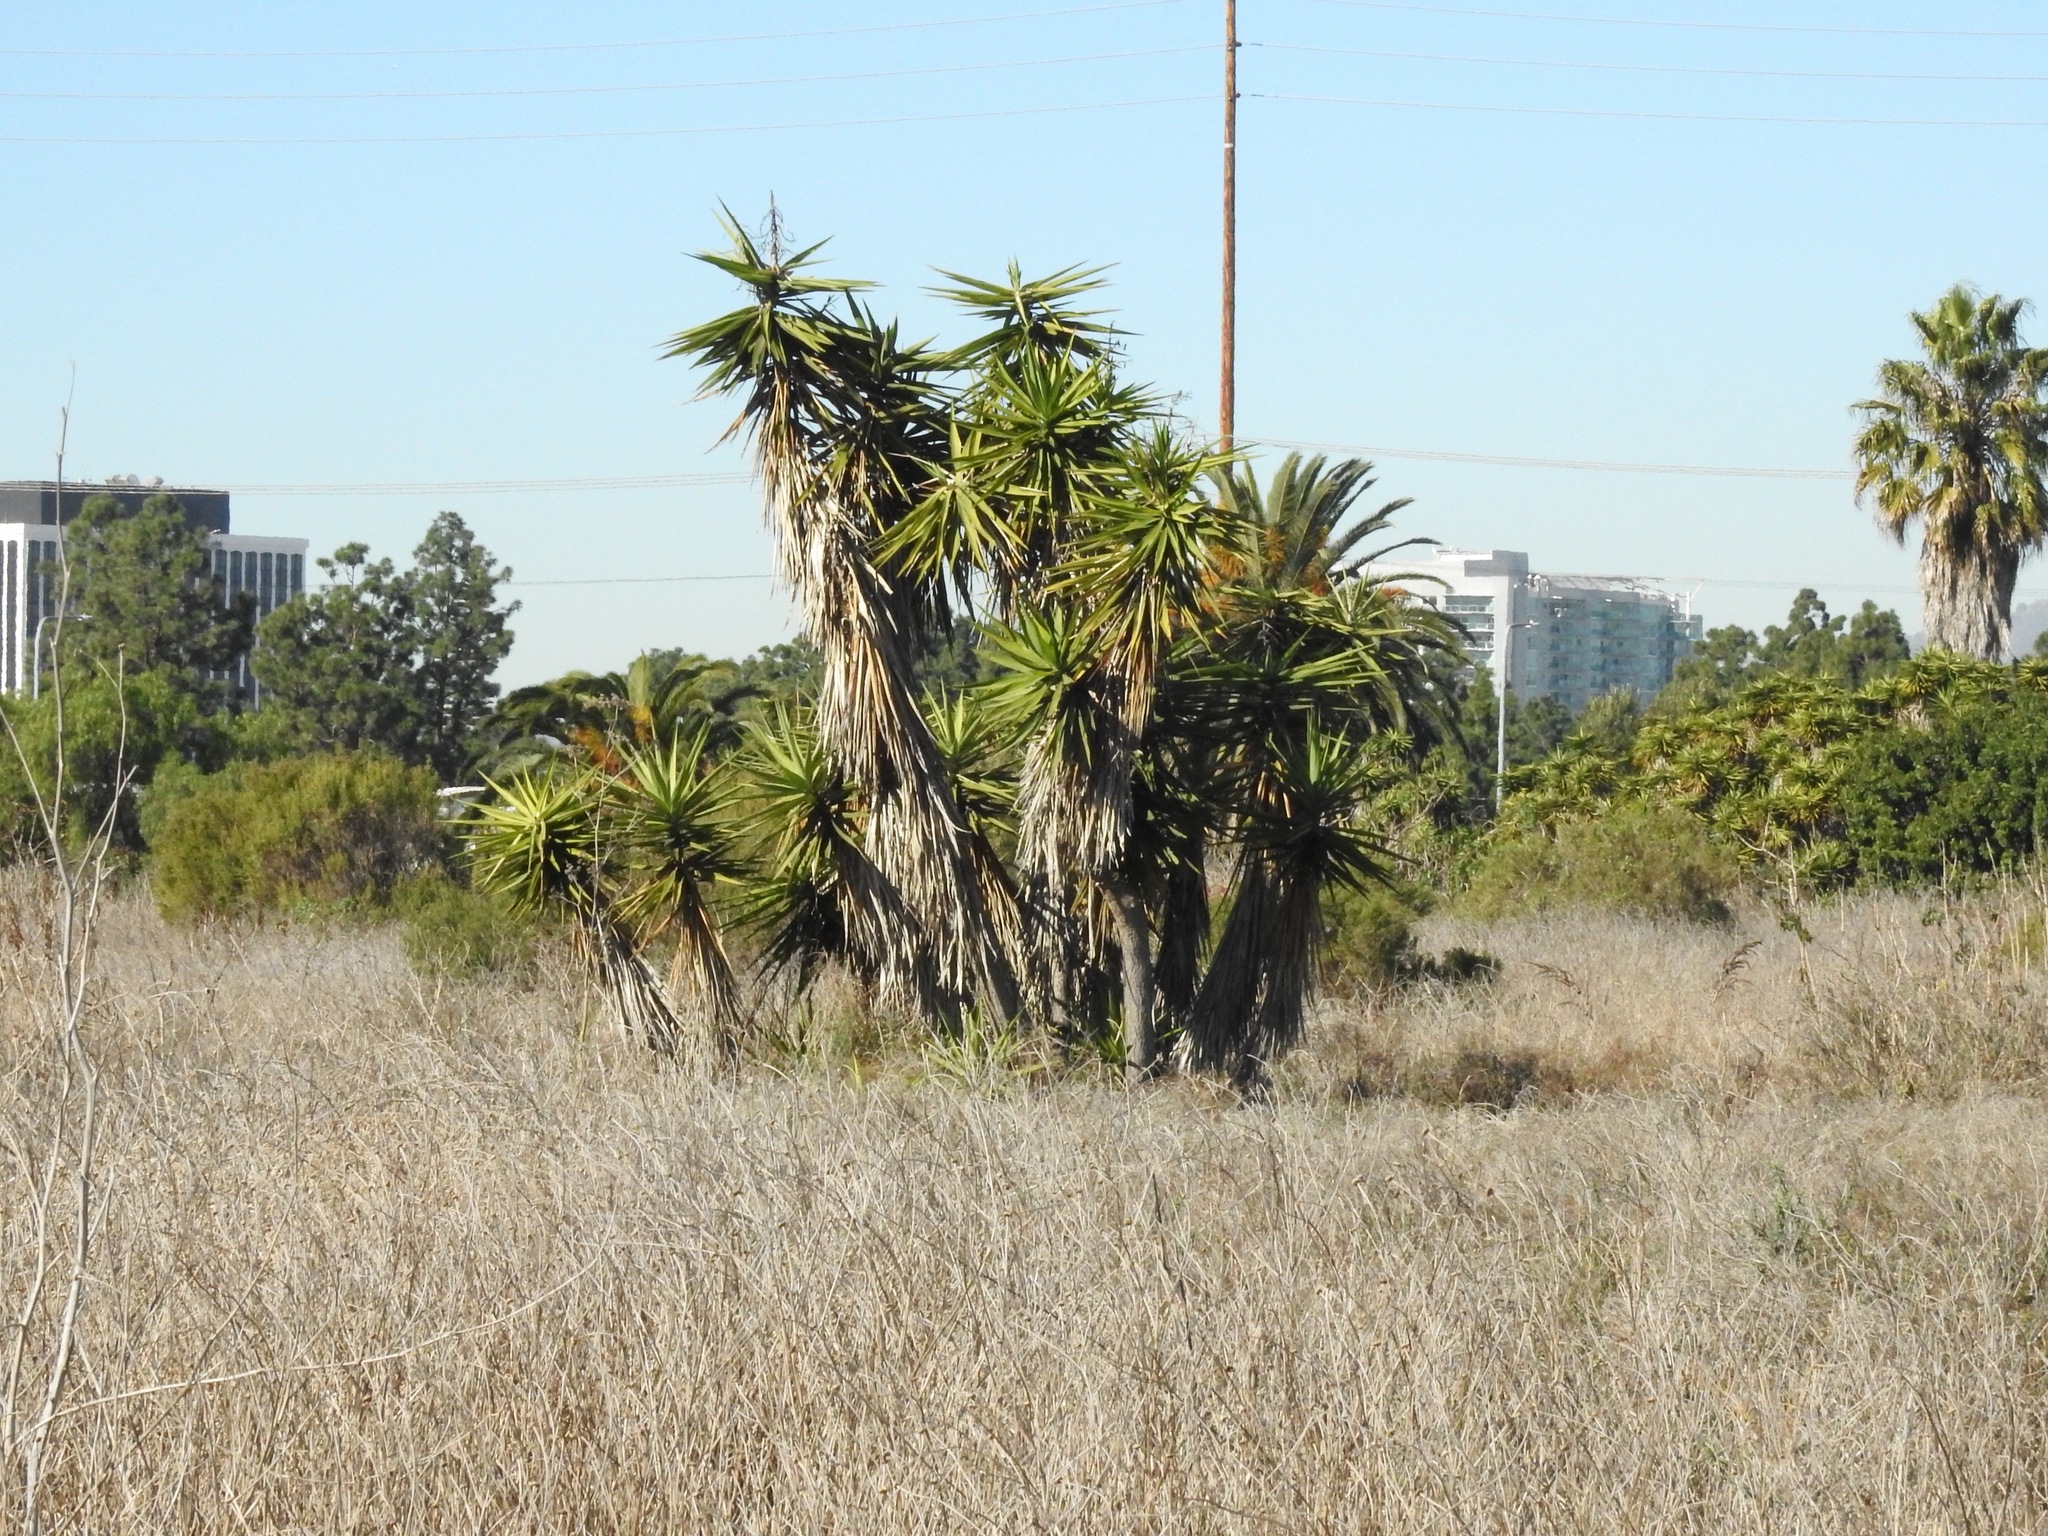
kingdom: Plantae
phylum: Tracheophyta
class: Liliopsida
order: Asparagales
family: Asparagaceae
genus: Yucca
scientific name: Yucca gigantea
